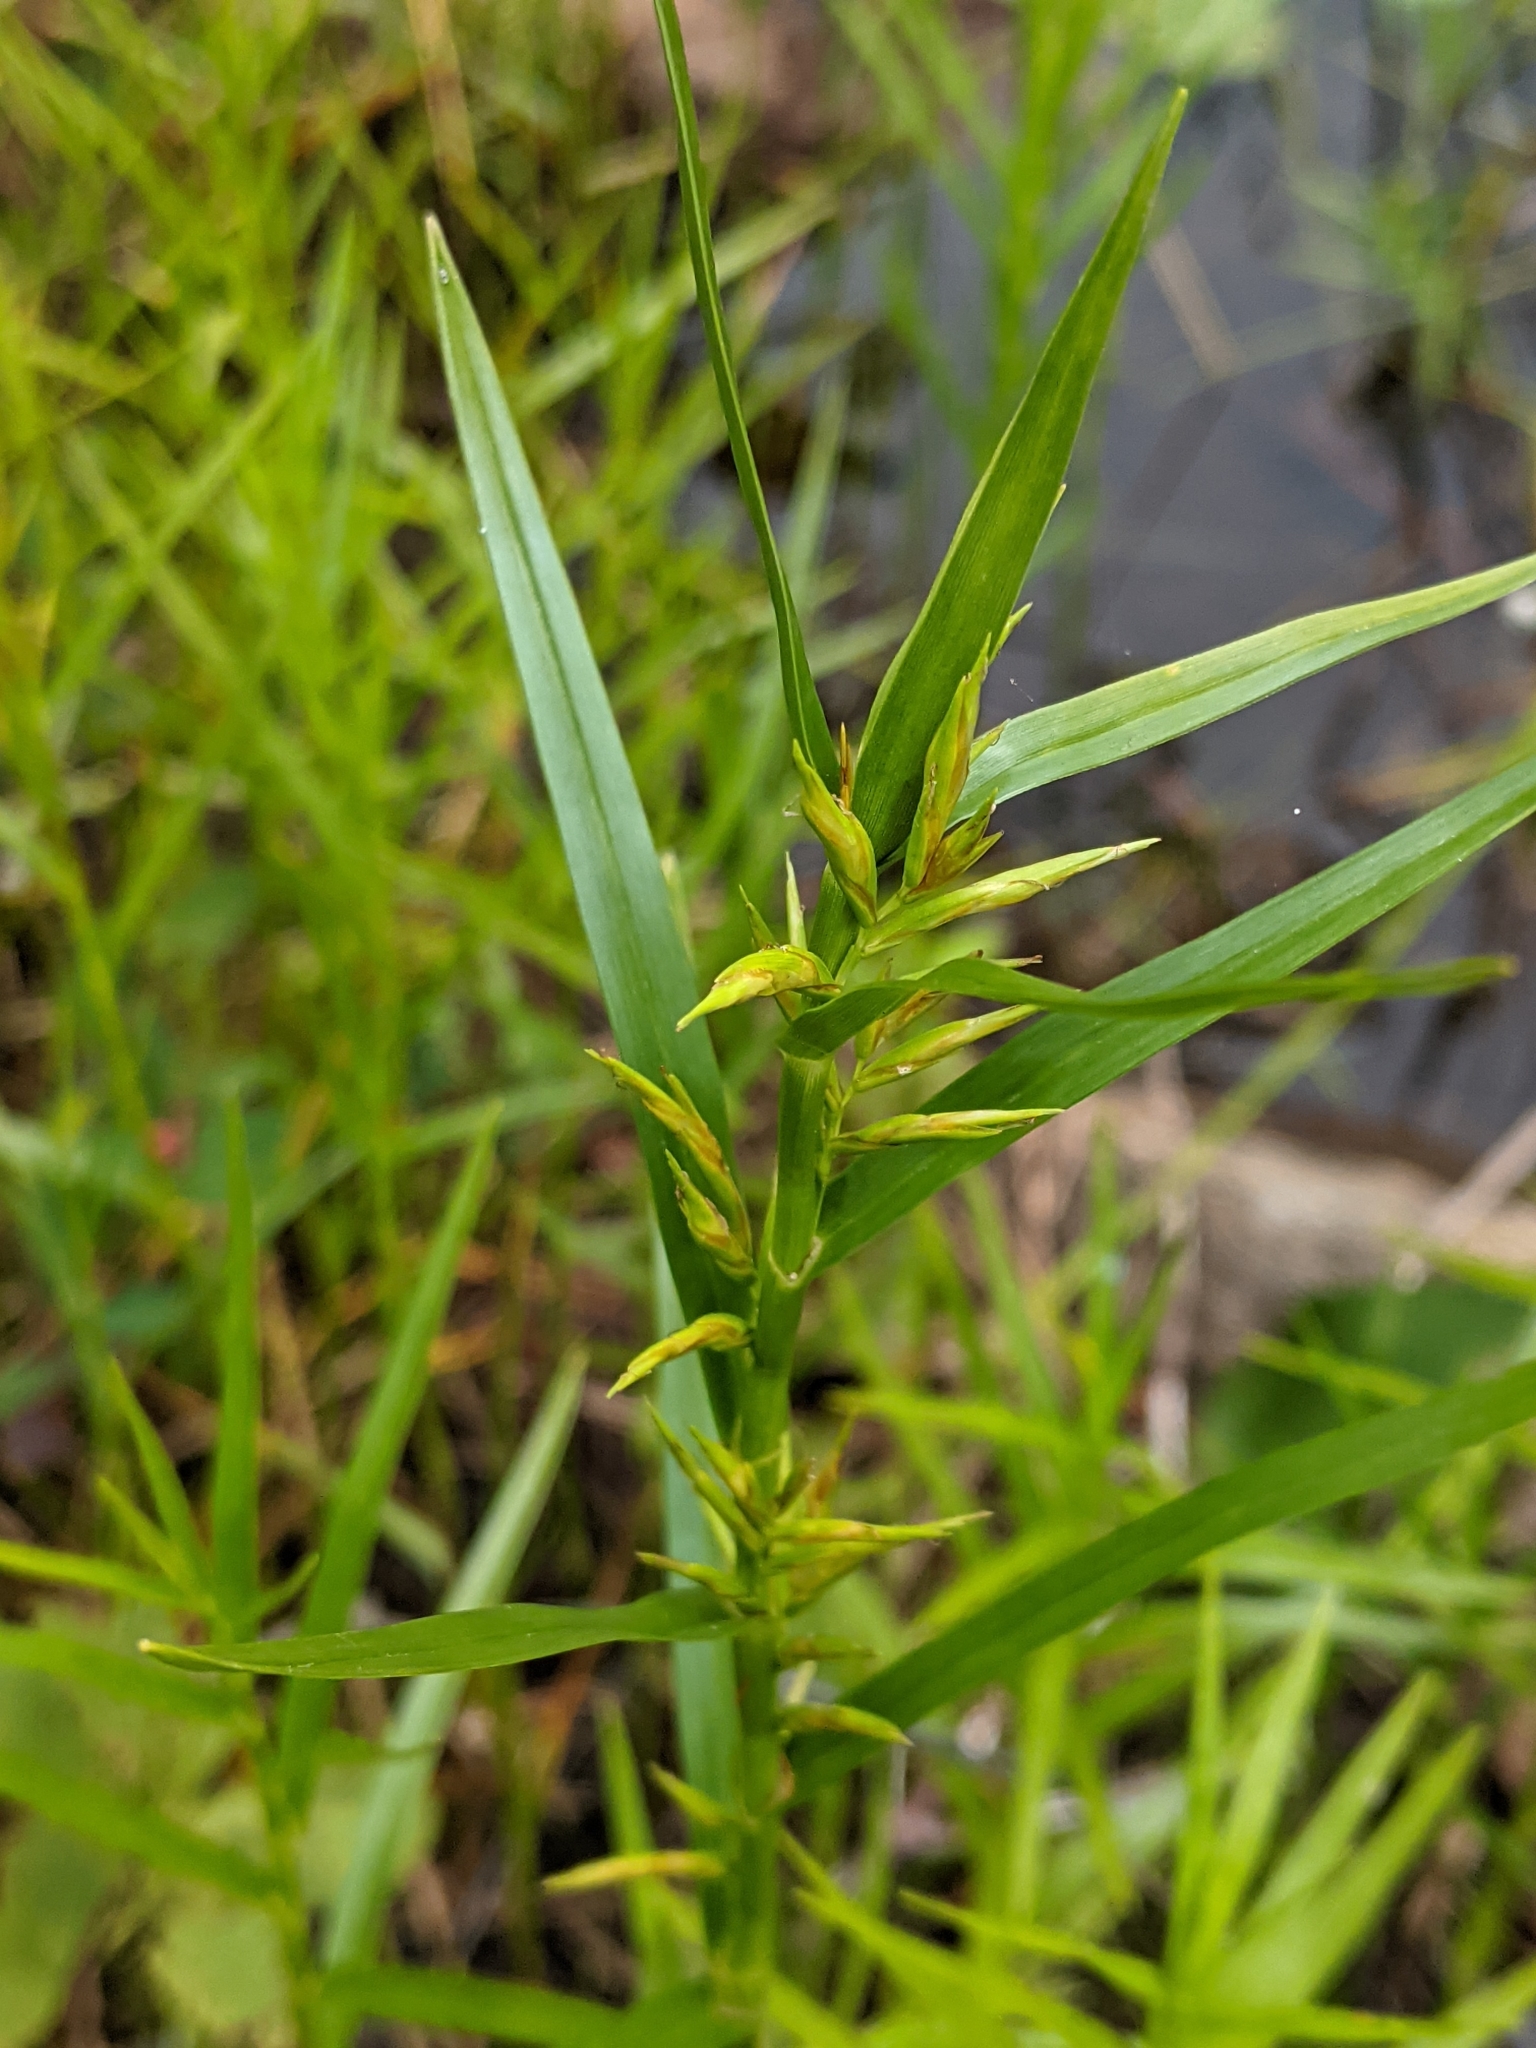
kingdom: Plantae
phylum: Tracheophyta
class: Liliopsida
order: Poales
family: Cyperaceae
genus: Dulichium
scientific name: Dulichium arundinaceum
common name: Three-way sedge
